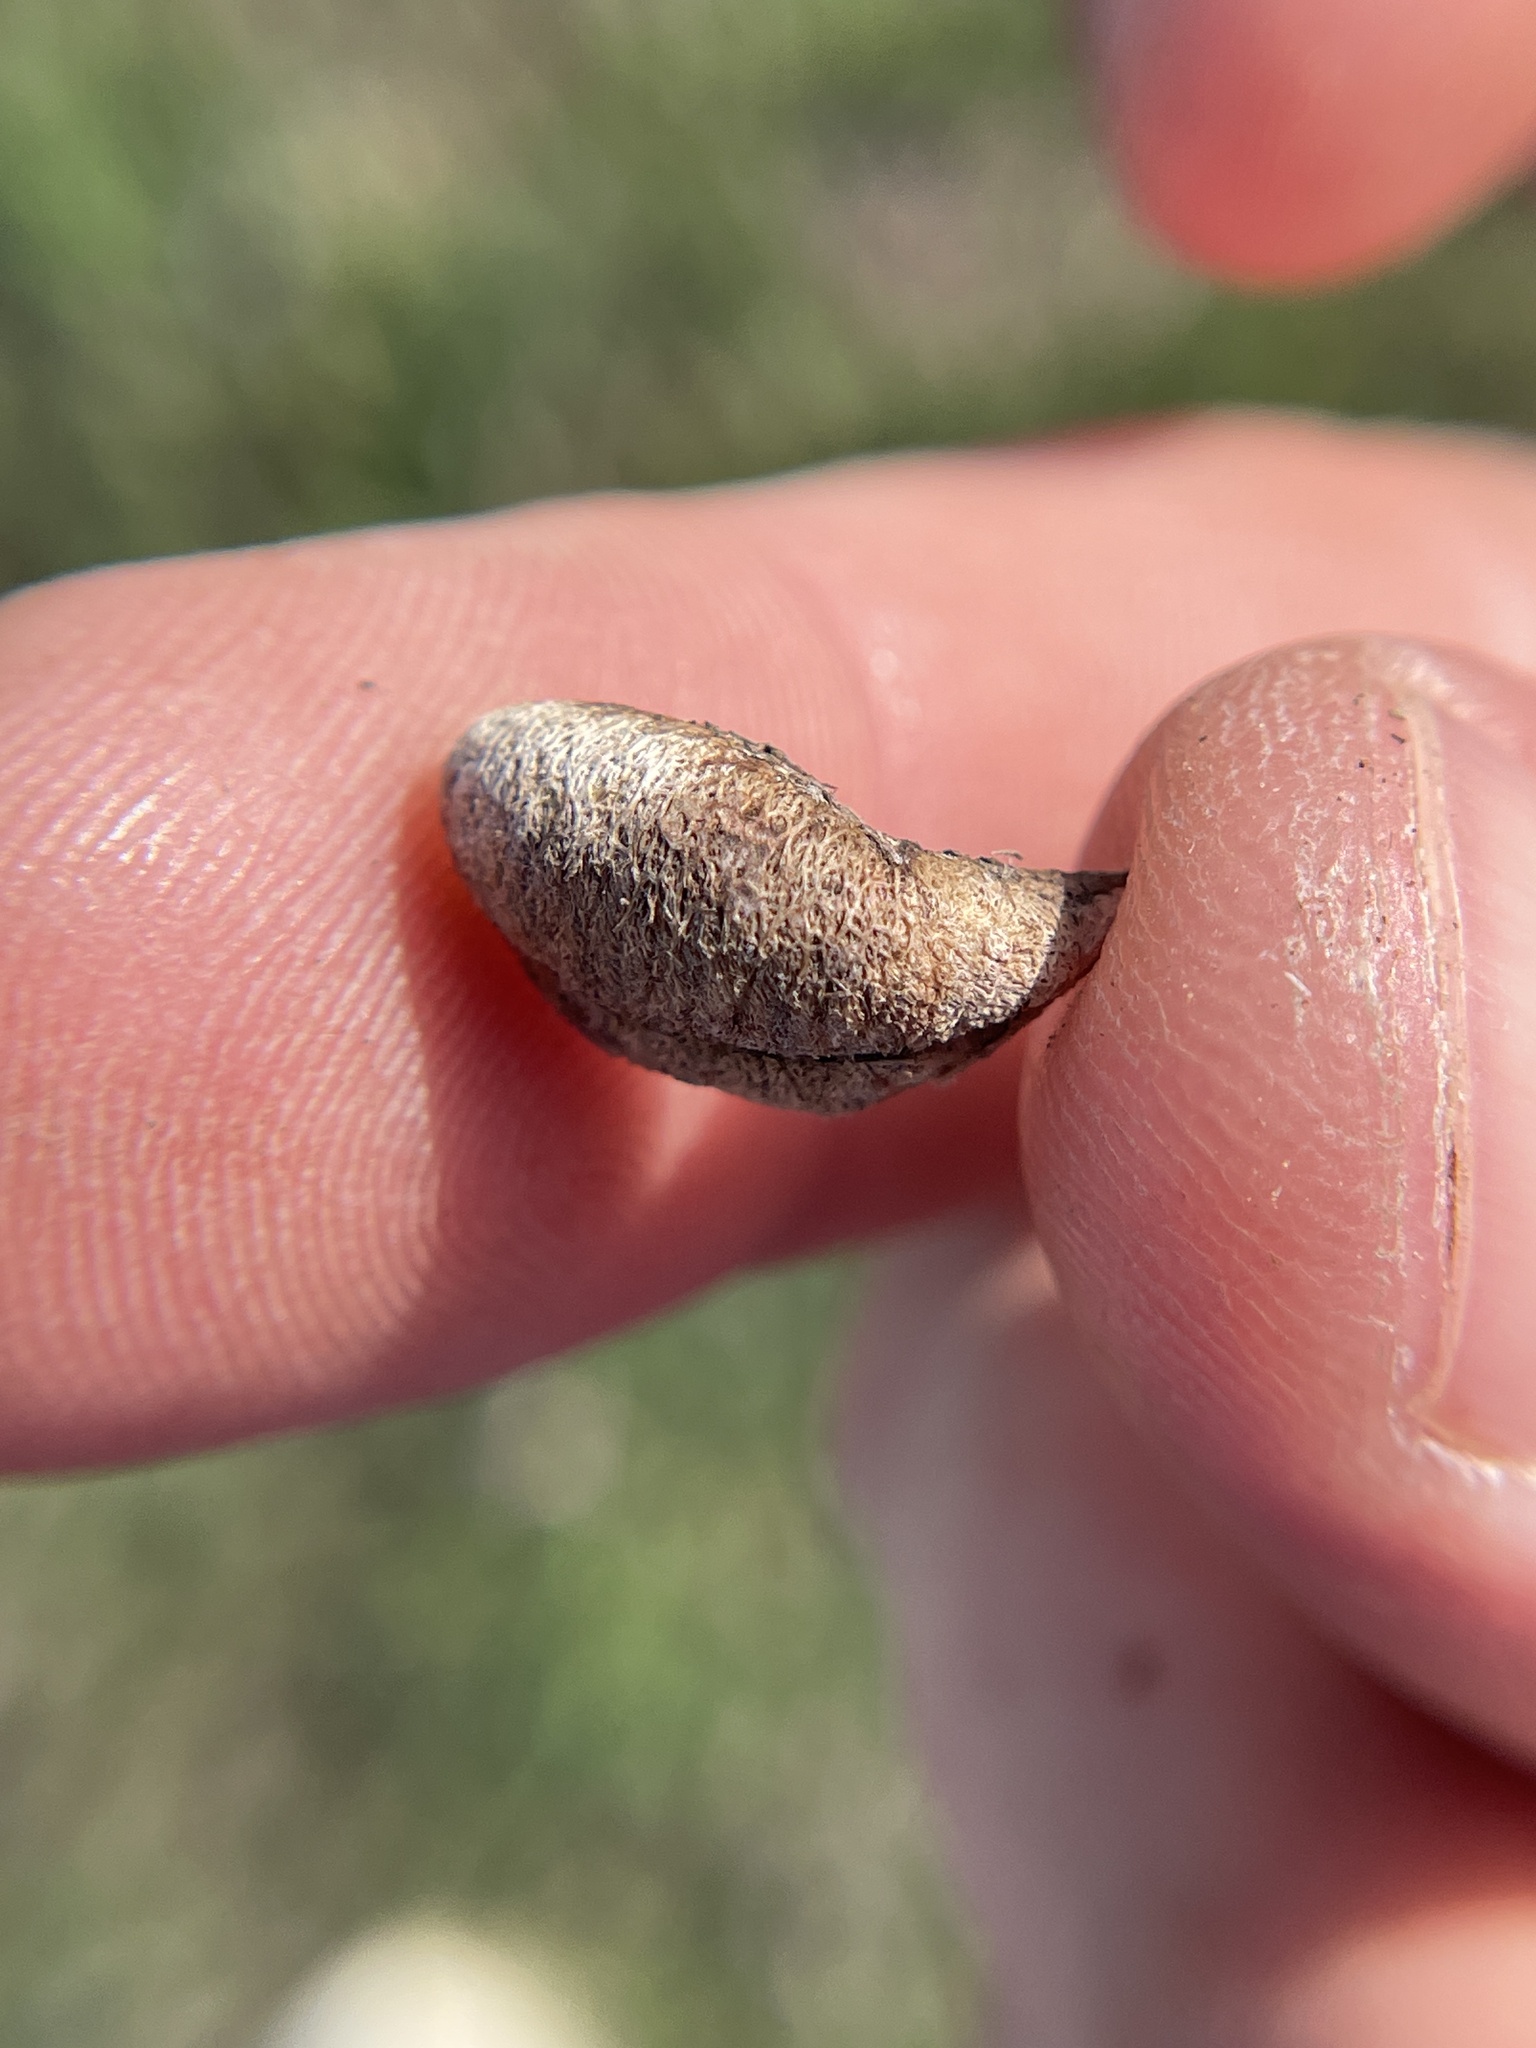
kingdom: Plantae
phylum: Tracheophyta
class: Magnoliopsida
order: Fabales
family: Fabaceae
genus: Astragalus
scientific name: Astragalus plattensis
